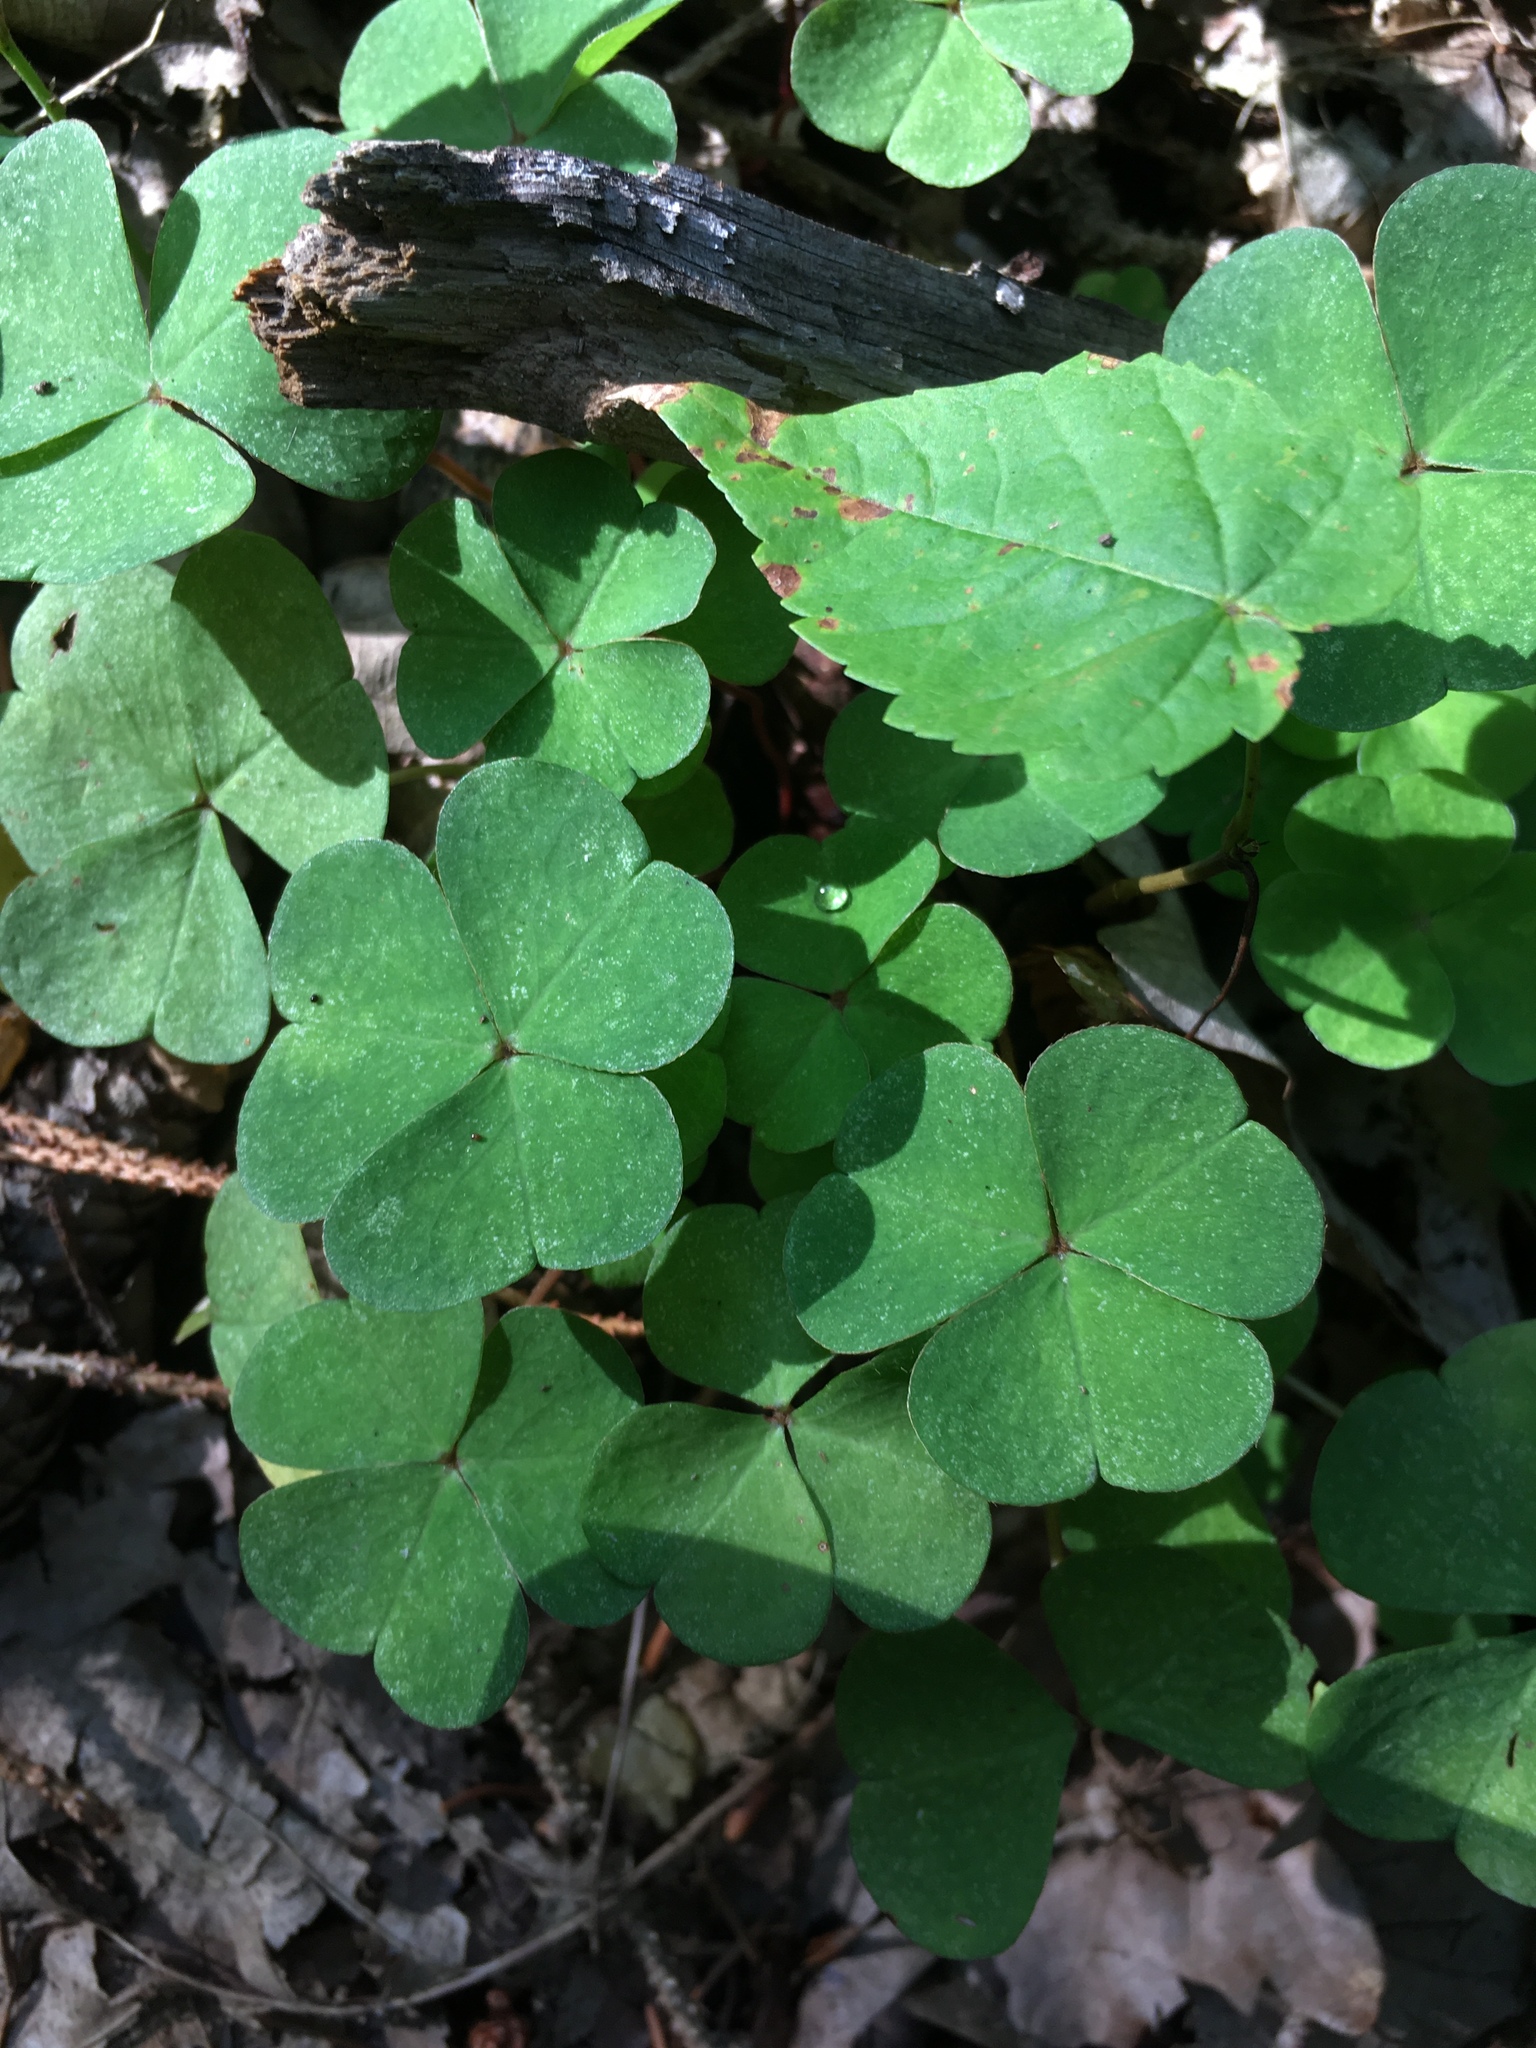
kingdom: Plantae
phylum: Tracheophyta
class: Magnoliopsida
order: Oxalidales
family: Oxalidaceae
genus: Oxalis
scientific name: Oxalis acetosella
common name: Wood-sorrel
